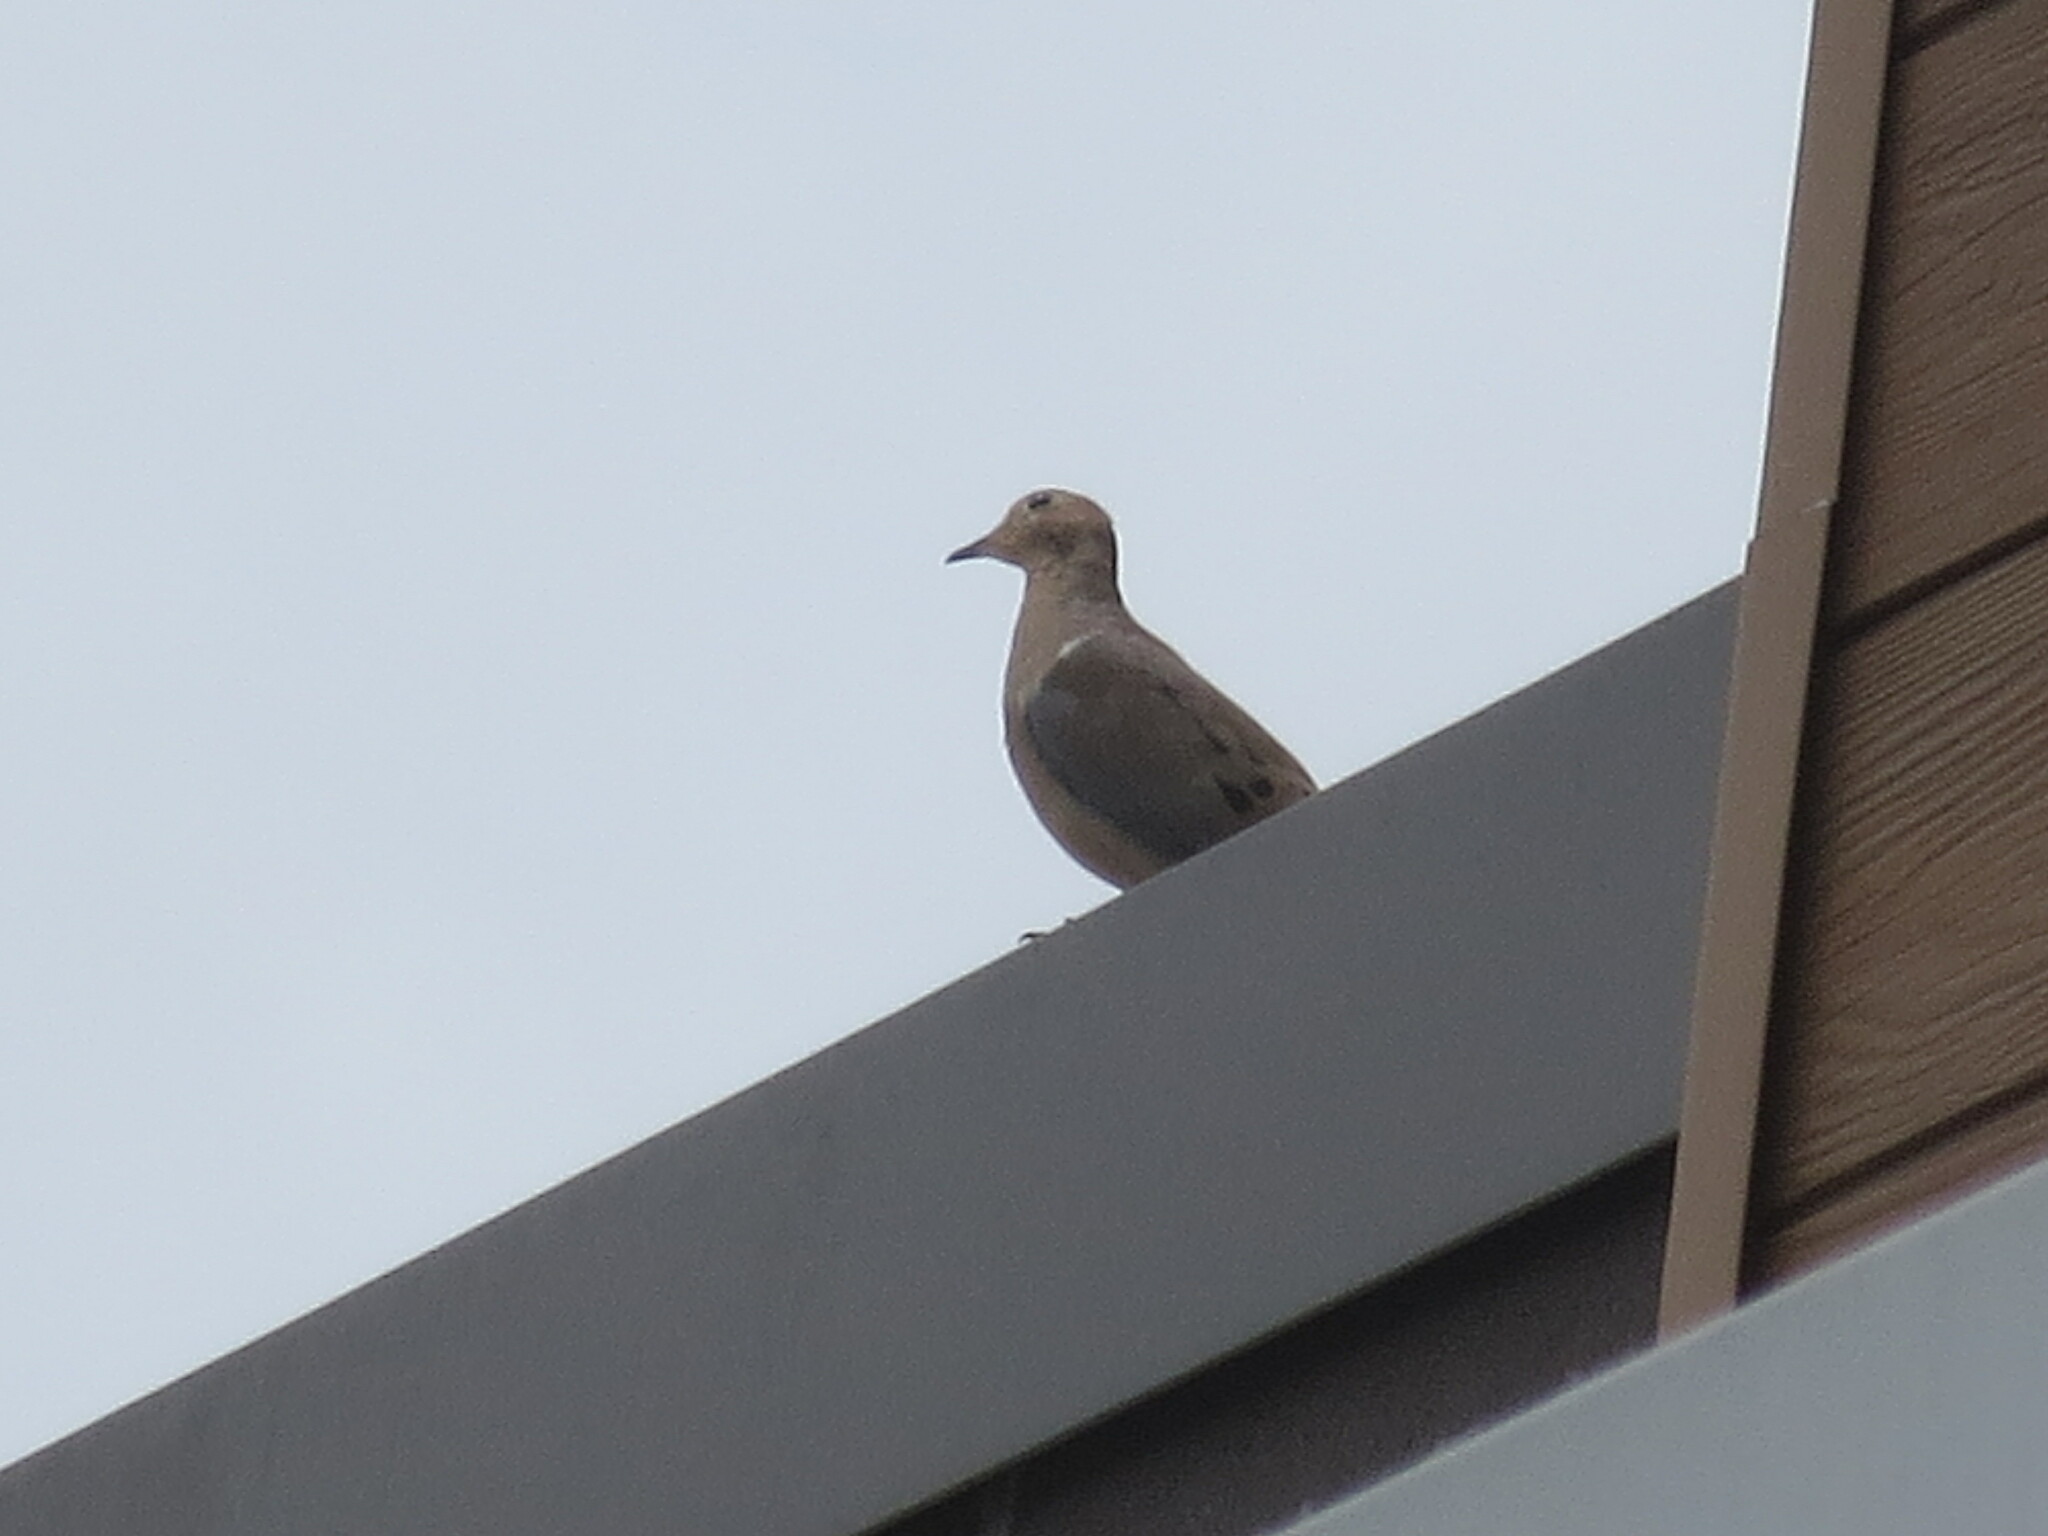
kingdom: Animalia
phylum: Chordata
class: Aves
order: Columbiformes
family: Columbidae
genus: Zenaida
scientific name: Zenaida macroura
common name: Mourning dove
